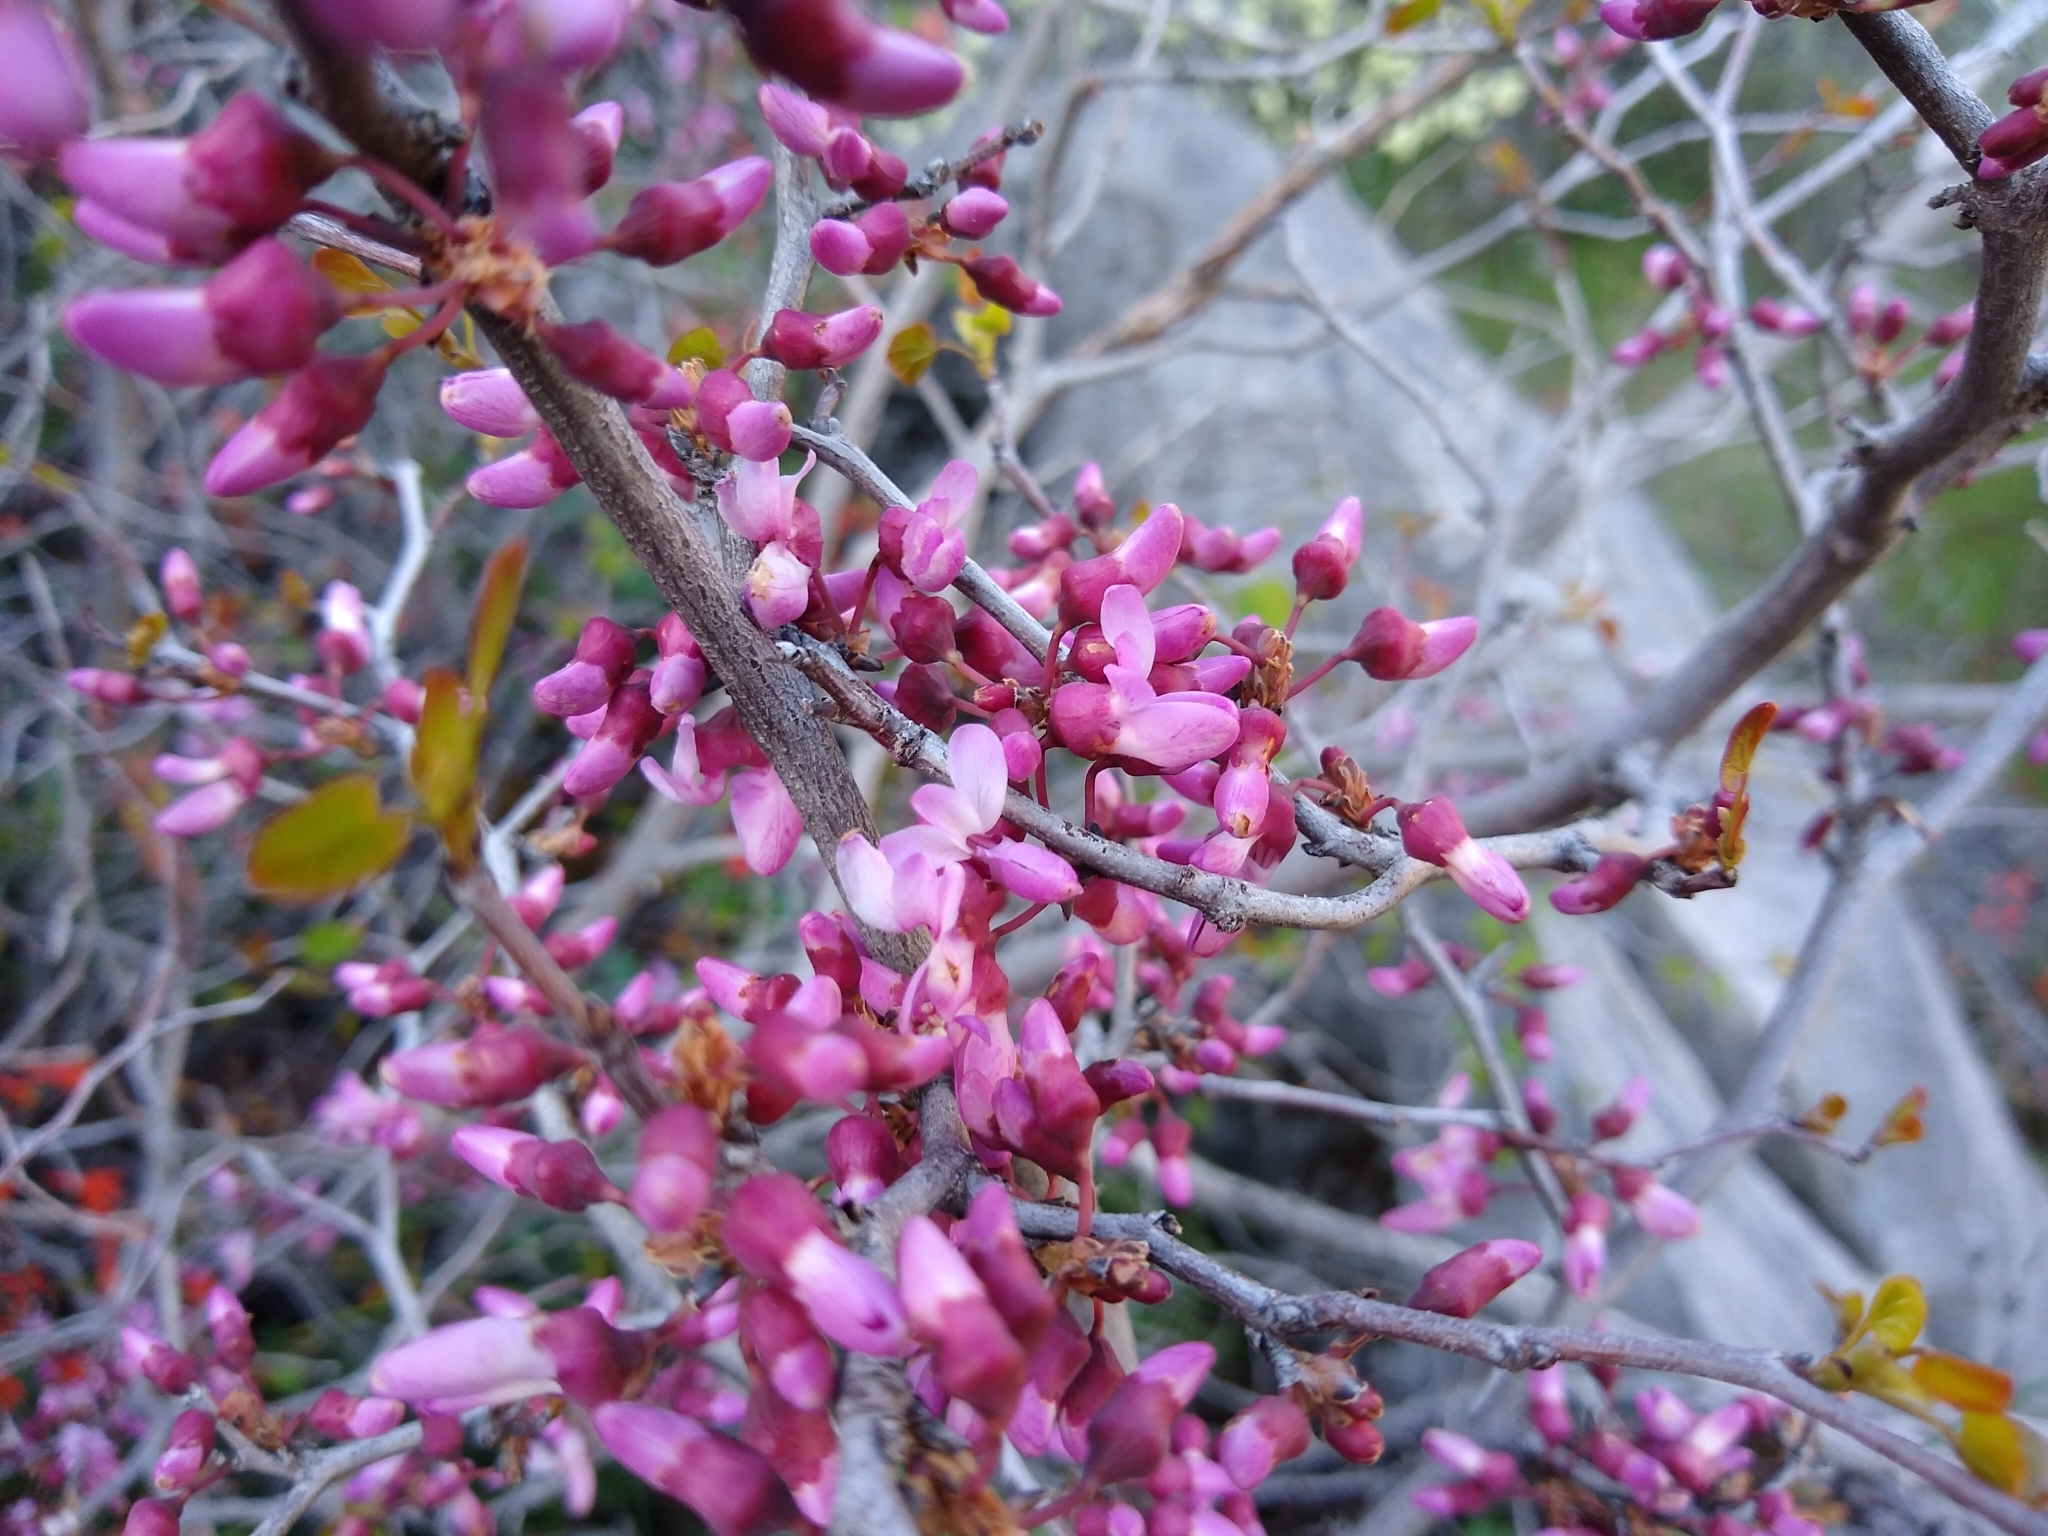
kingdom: Plantae
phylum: Tracheophyta
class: Magnoliopsida
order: Fabales
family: Fabaceae
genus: Cercis
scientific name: Cercis occidentalis
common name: California redbud
